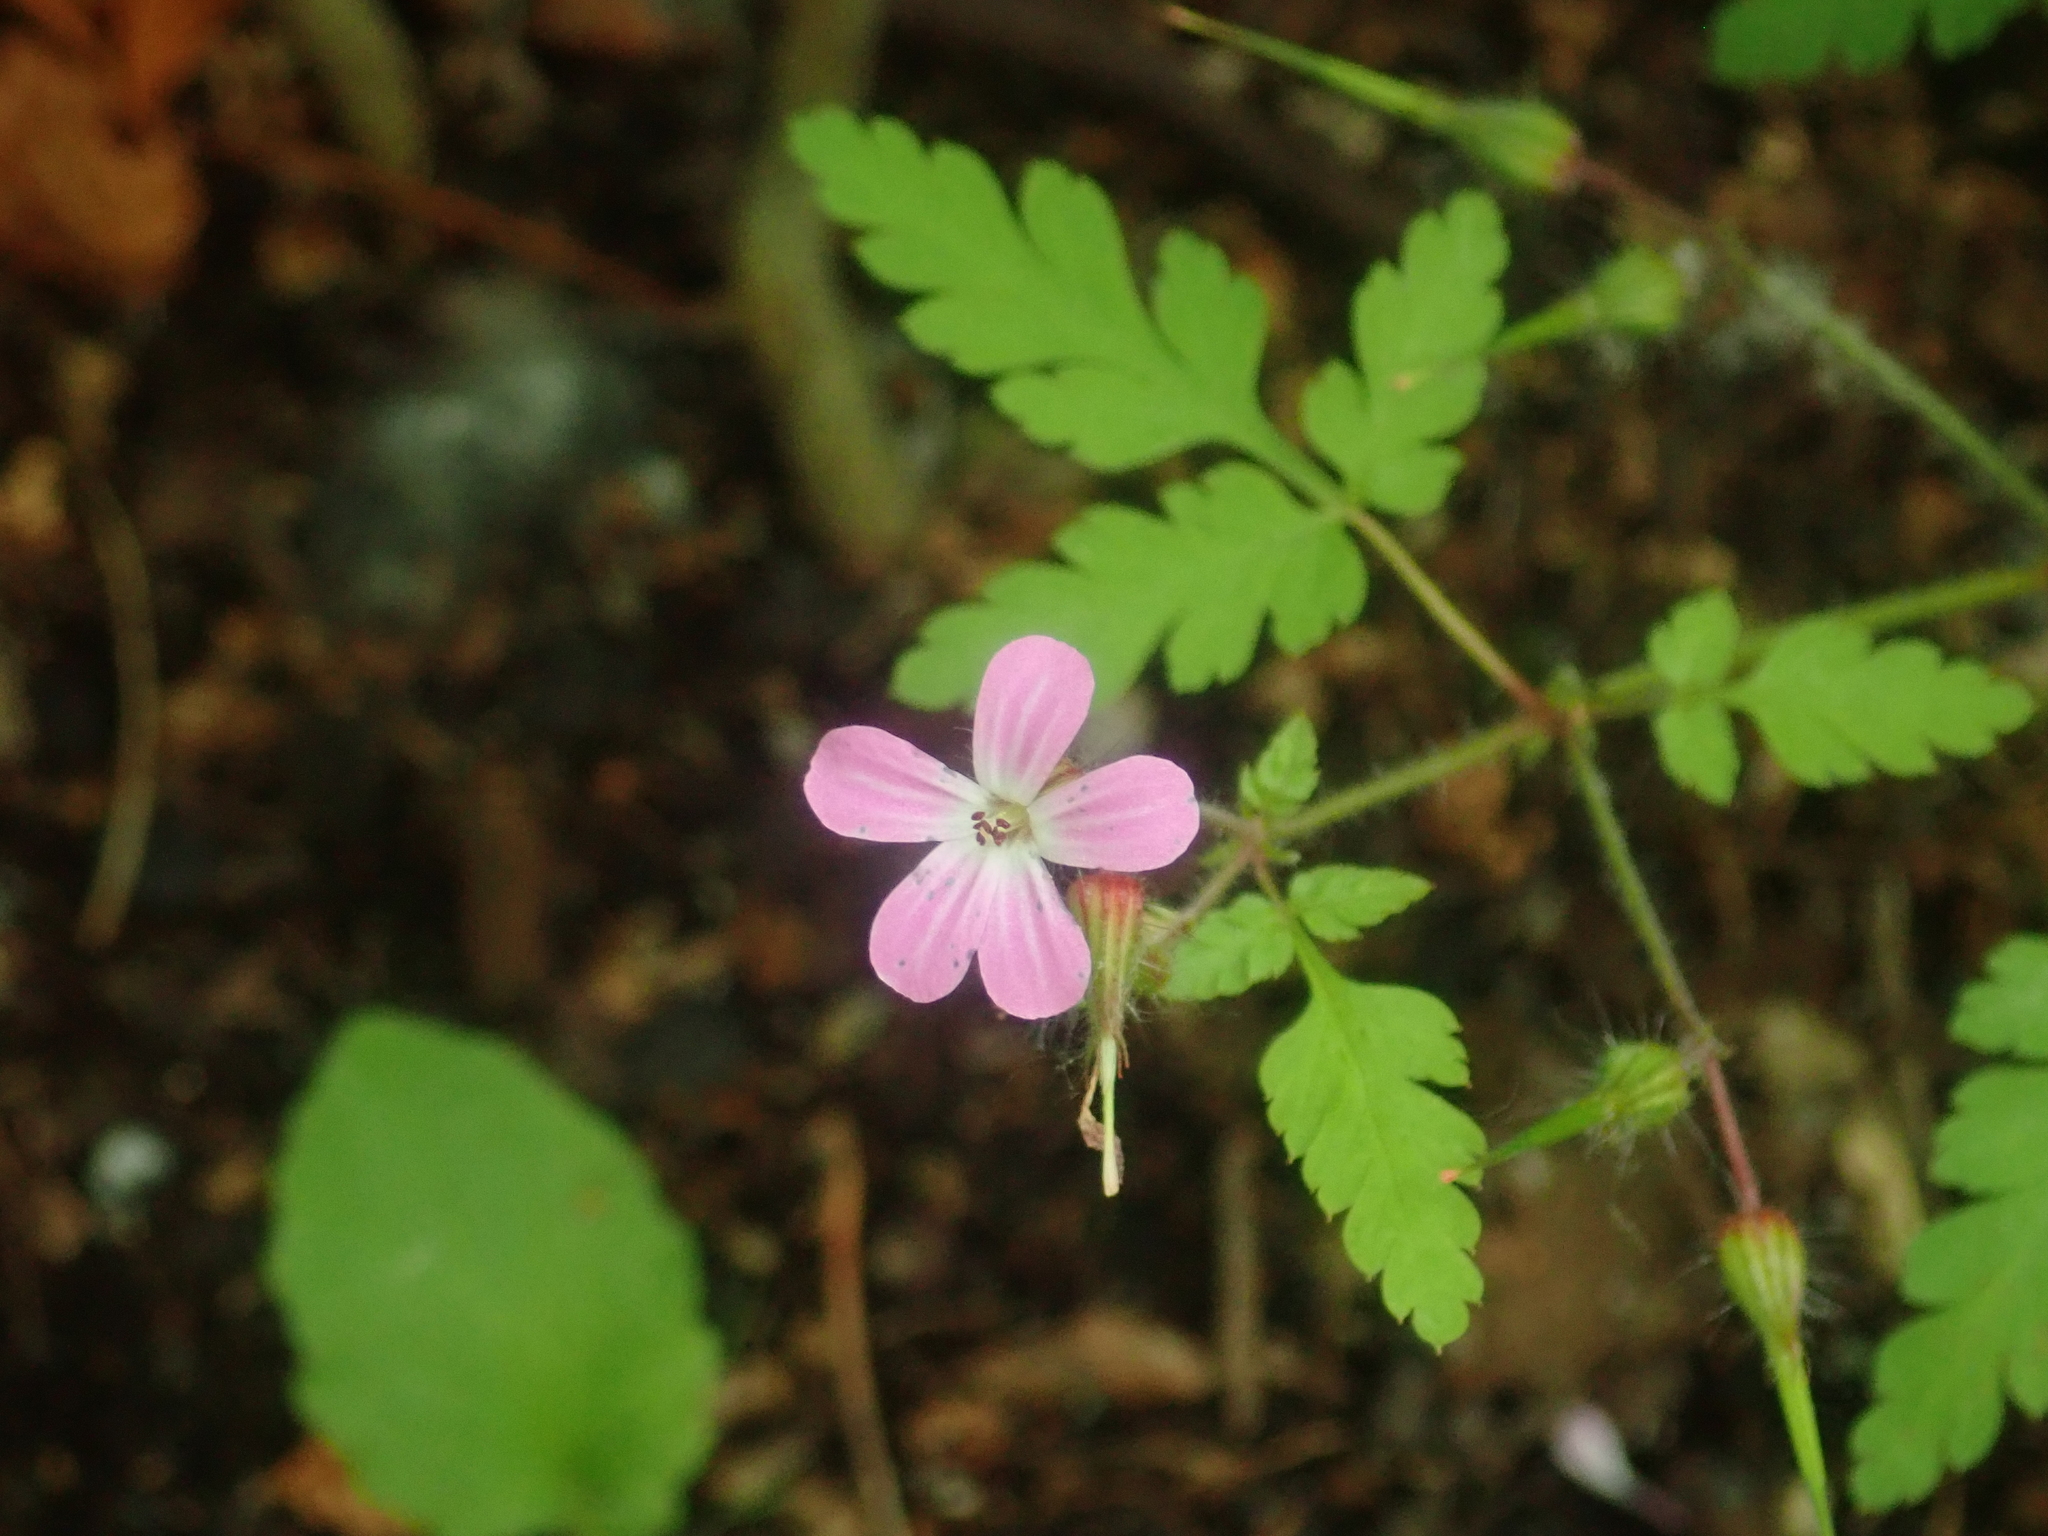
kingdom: Plantae
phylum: Tracheophyta
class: Magnoliopsida
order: Geraniales
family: Geraniaceae
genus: Geranium
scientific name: Geranium robertianum
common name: Herb-robert
